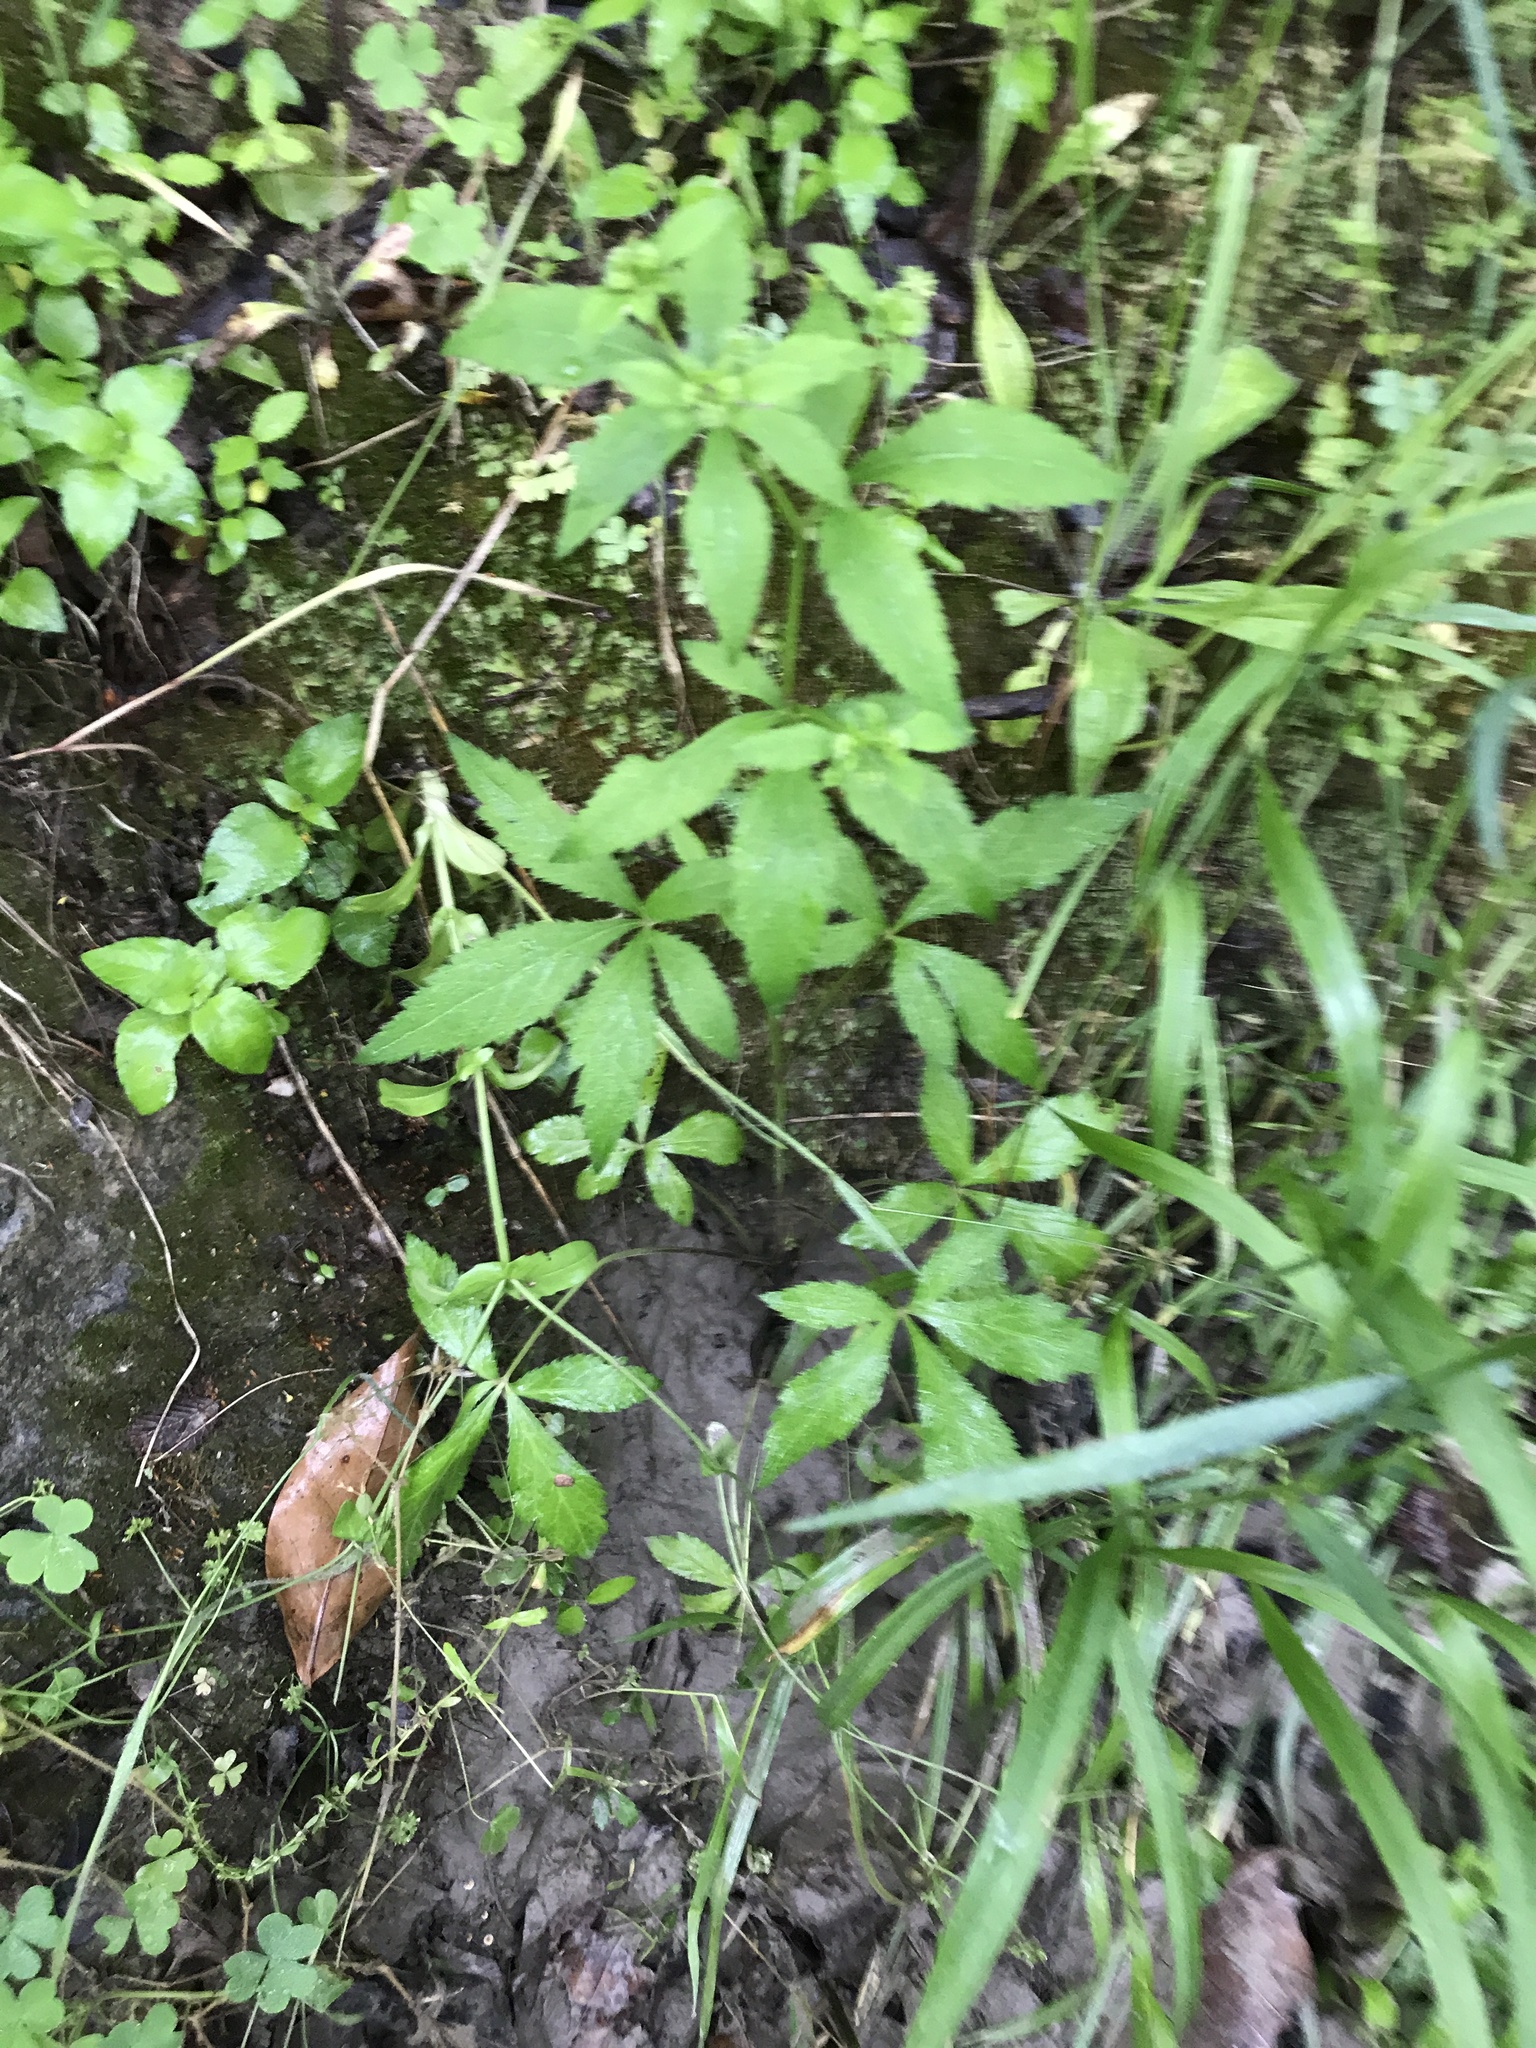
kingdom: Plantae
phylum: Tracheophyta
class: Magnoliopsida
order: Apiales
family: Apiaceae
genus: Sanicula
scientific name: Sanicula canadensis
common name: Canada sanicle
